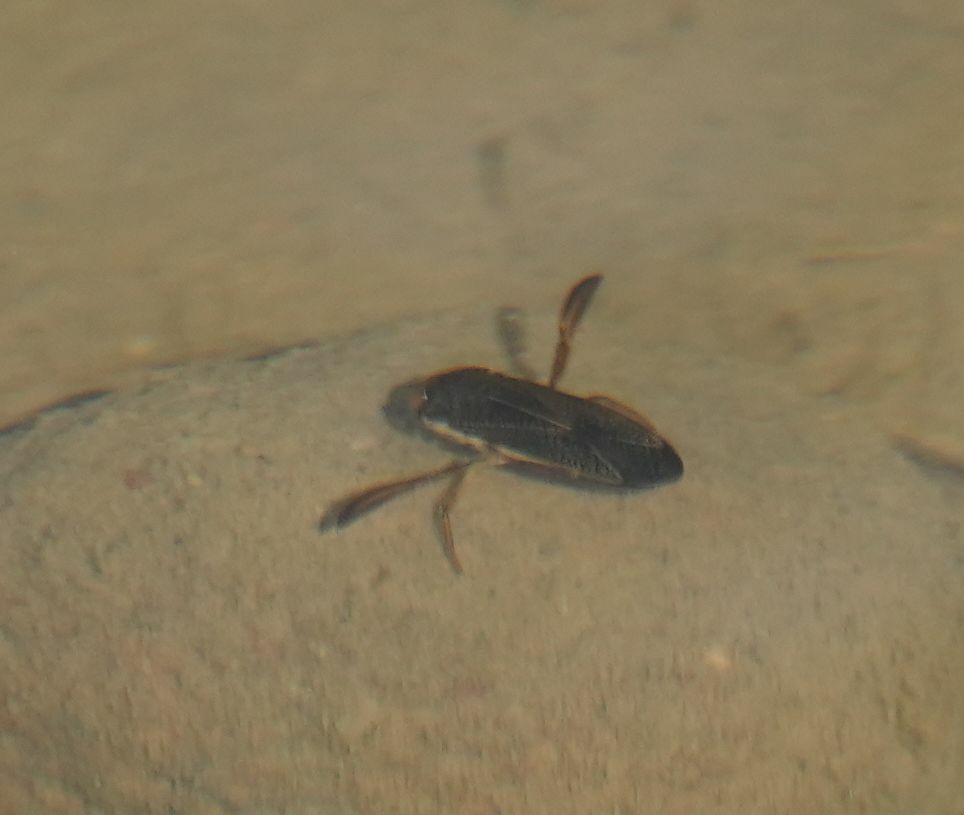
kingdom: Animalia
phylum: Arthropoda
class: Insecta
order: Hemiptera
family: Corixidae
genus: Hesperocorixa
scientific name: Hesperocorixa
